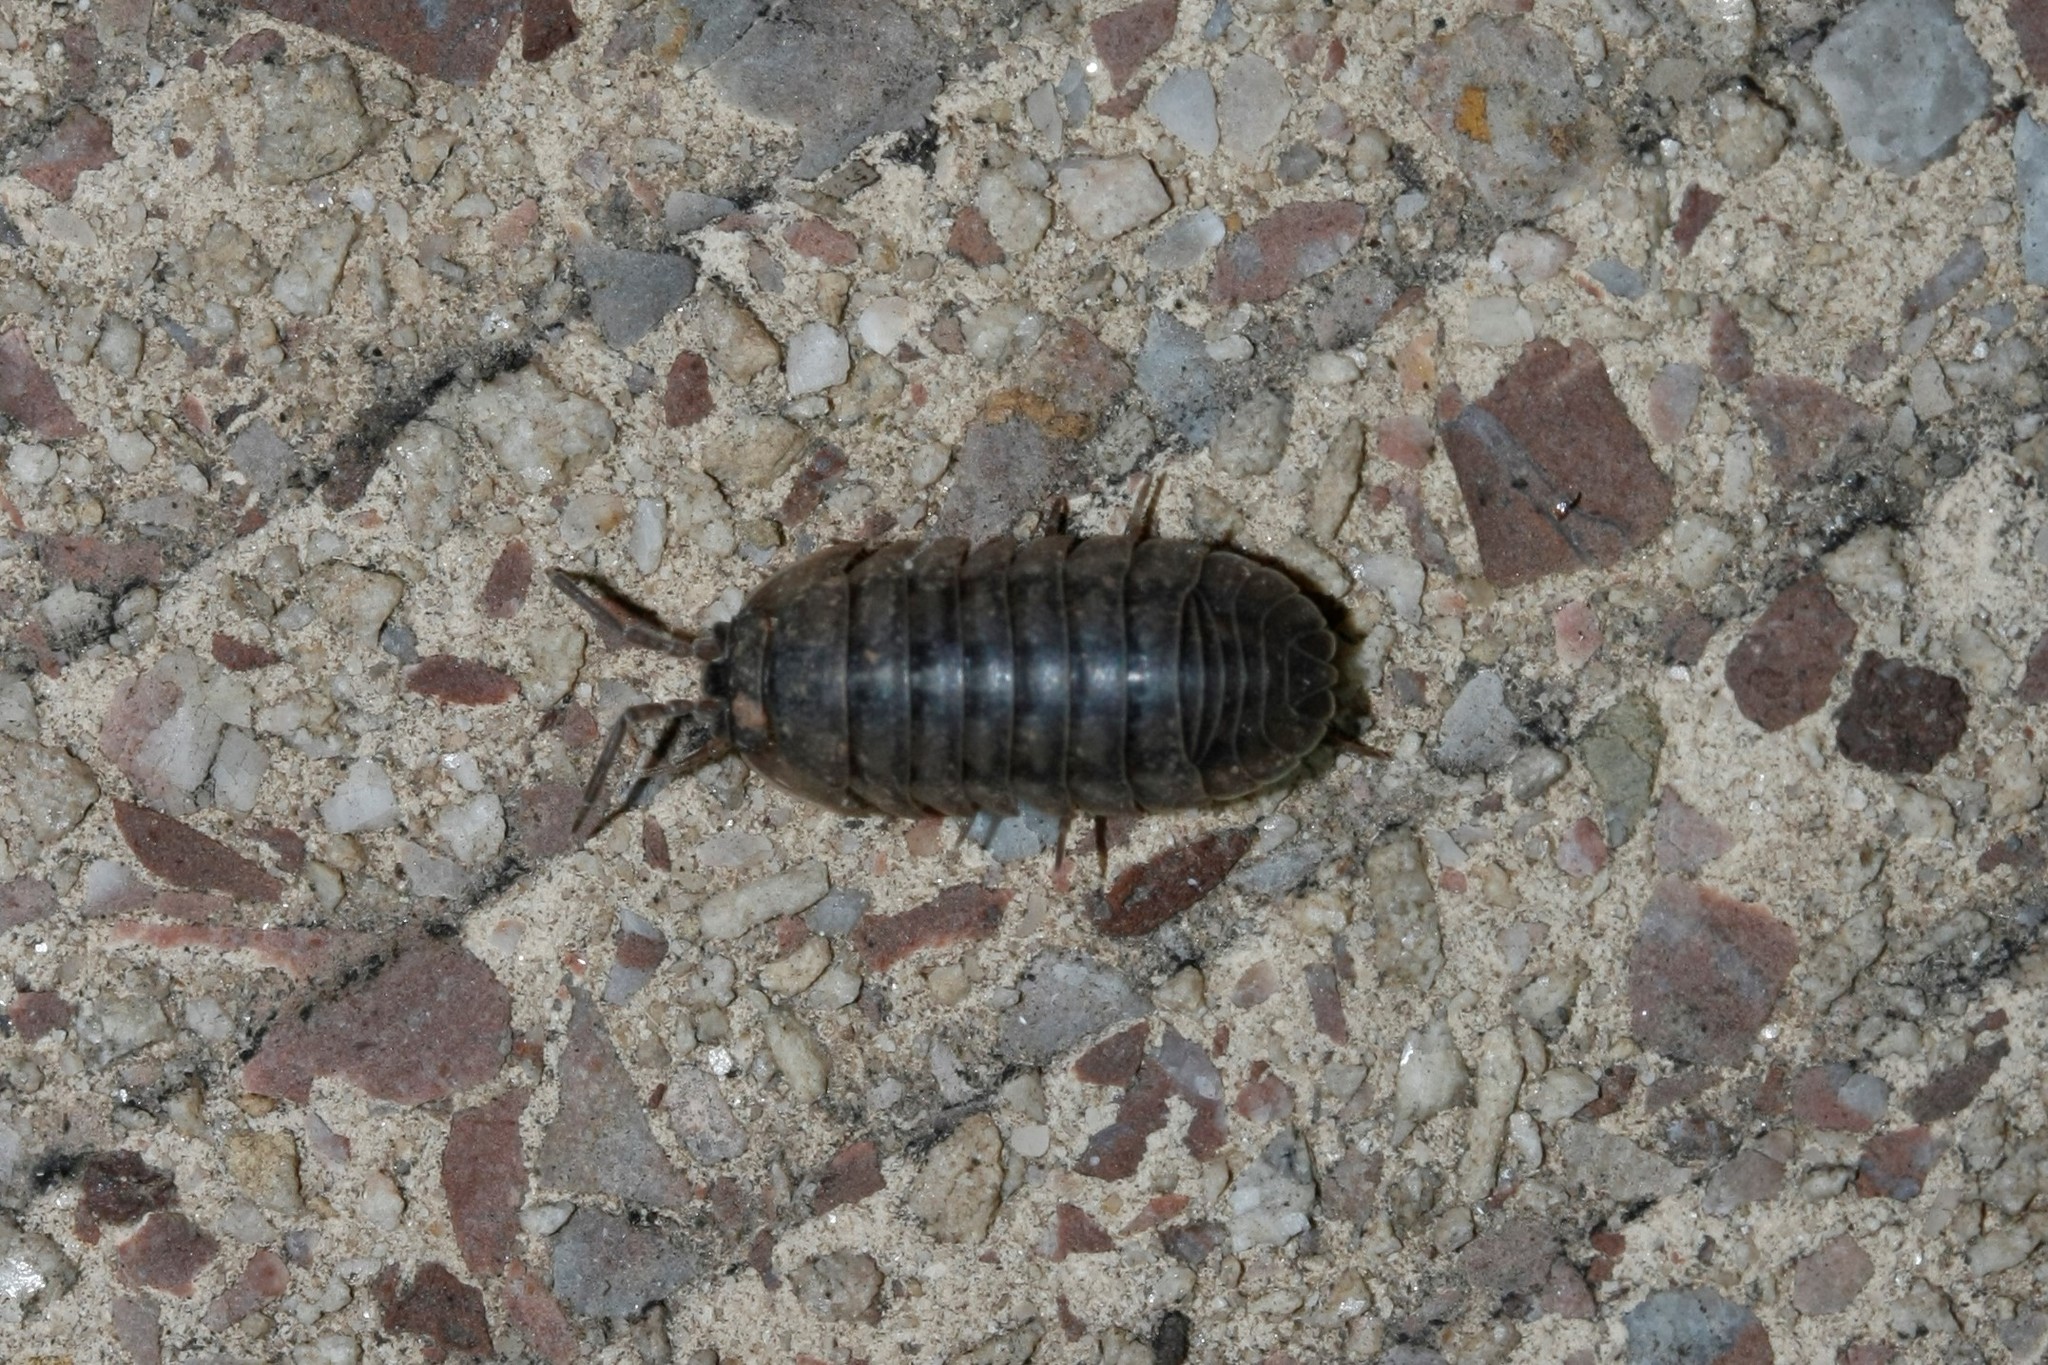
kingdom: Animalia
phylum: Arthropoda
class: Malacostraca
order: Isopoda
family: Armadillidiidae
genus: Armadillidium
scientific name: Armadillidium nasatum
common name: Isopod
